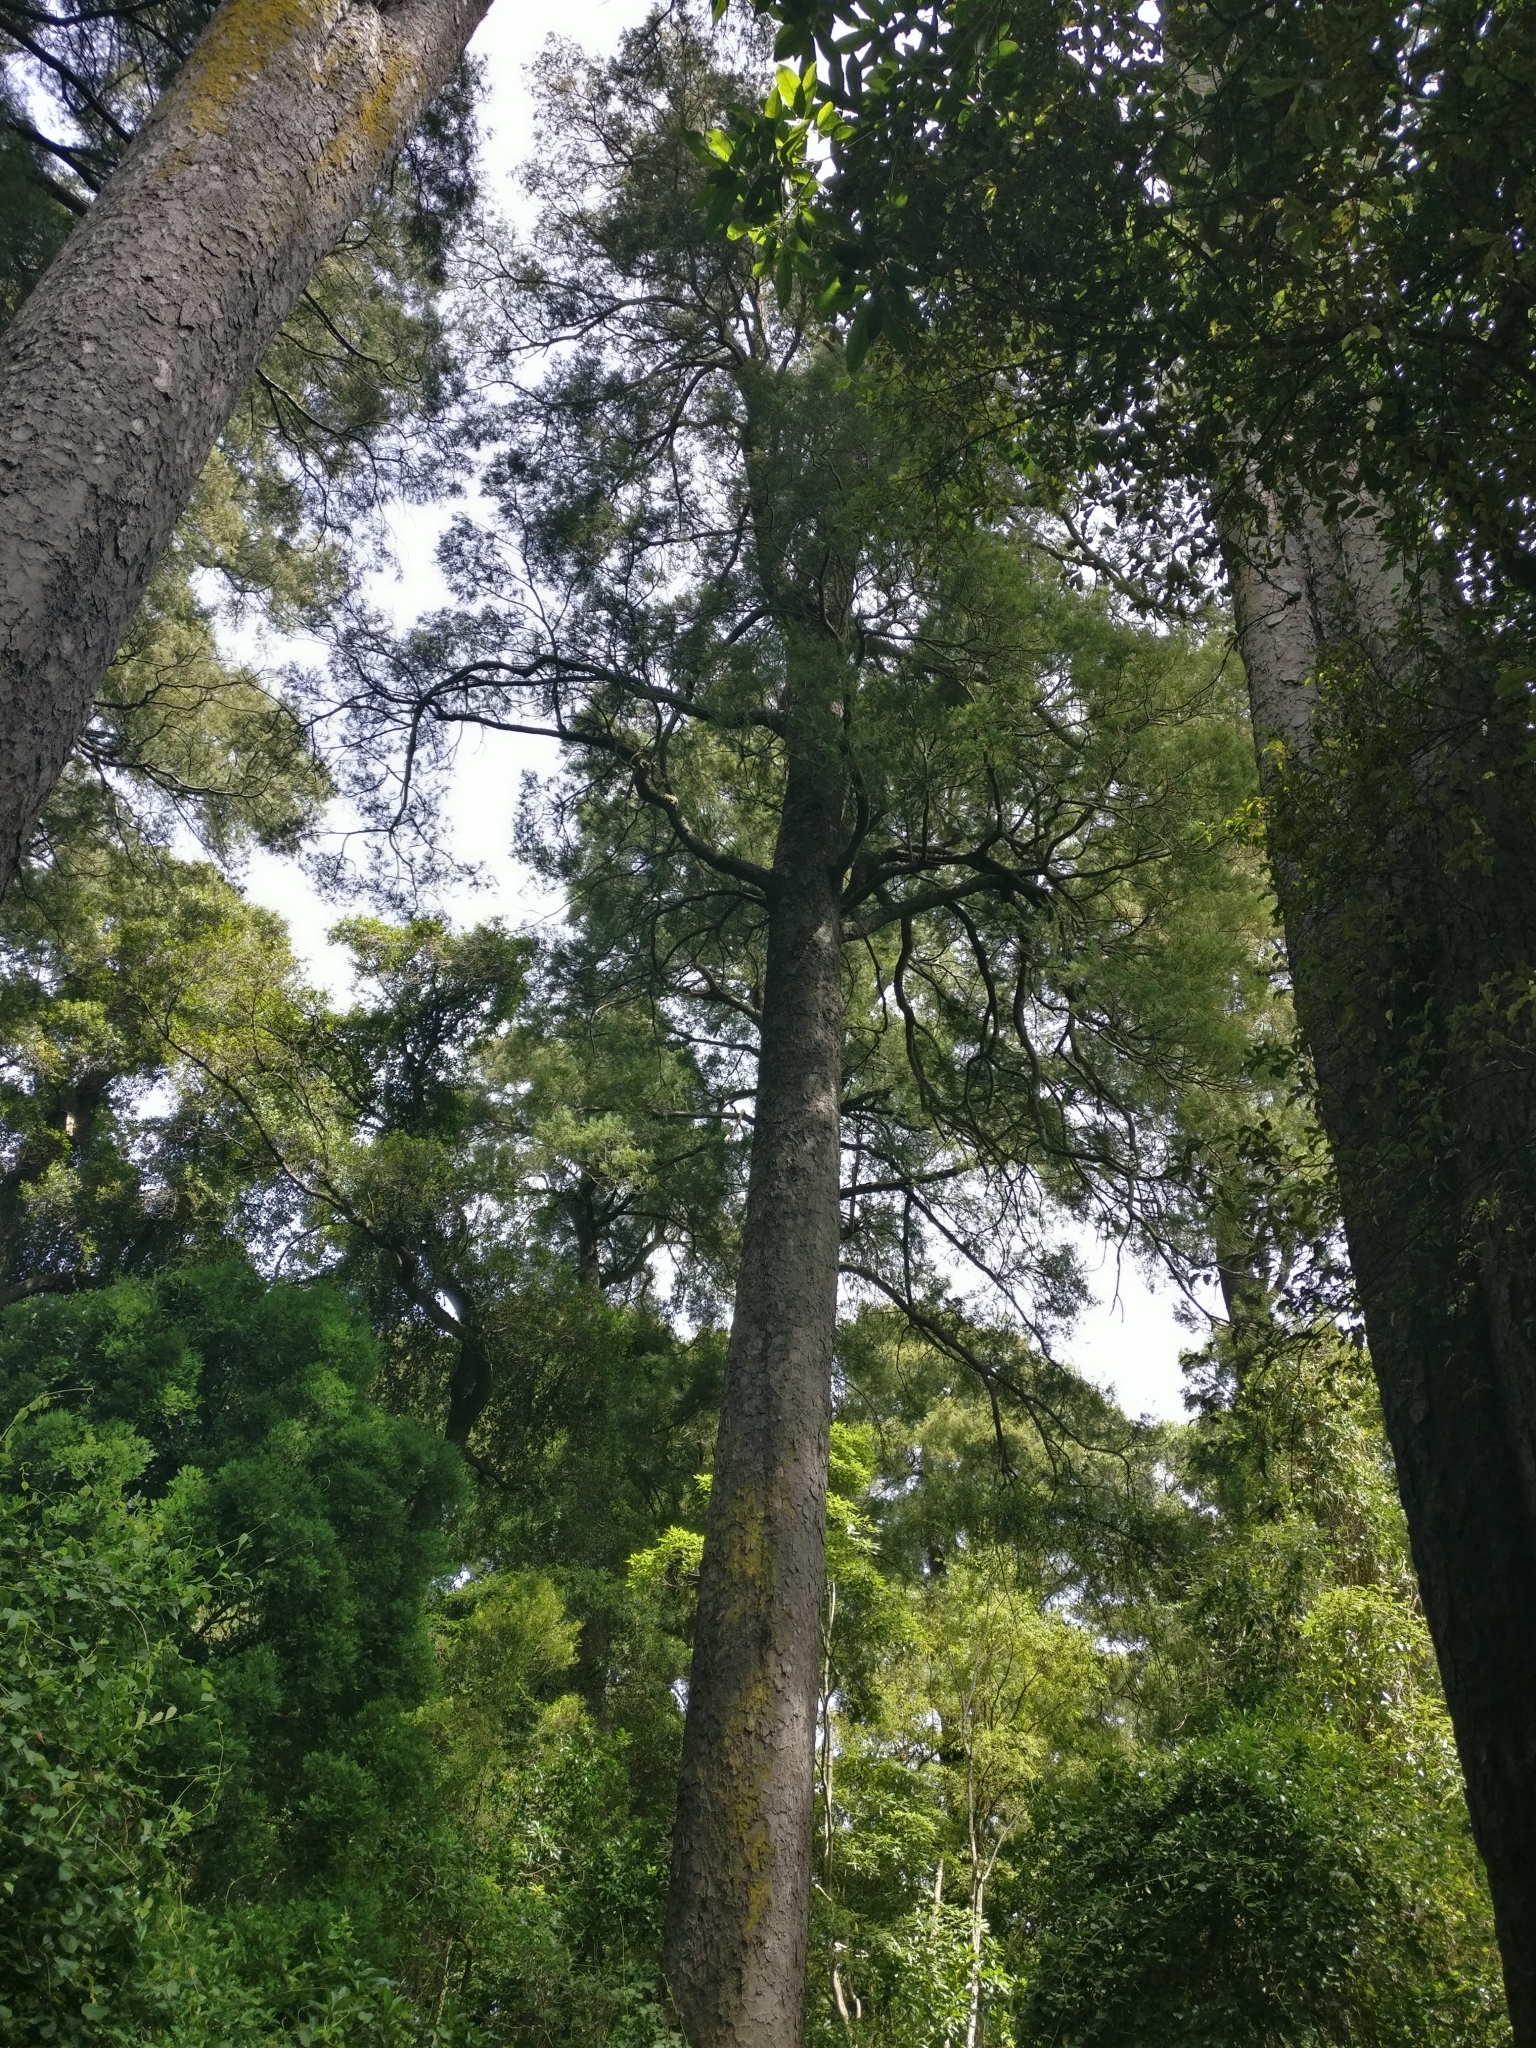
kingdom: Plantae
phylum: Tracheophyta
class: Pinopsida
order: Pinales
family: Podocarpaceae
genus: Dacrycarpus
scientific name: Dacrycarpus dacrydioides
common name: White pine
